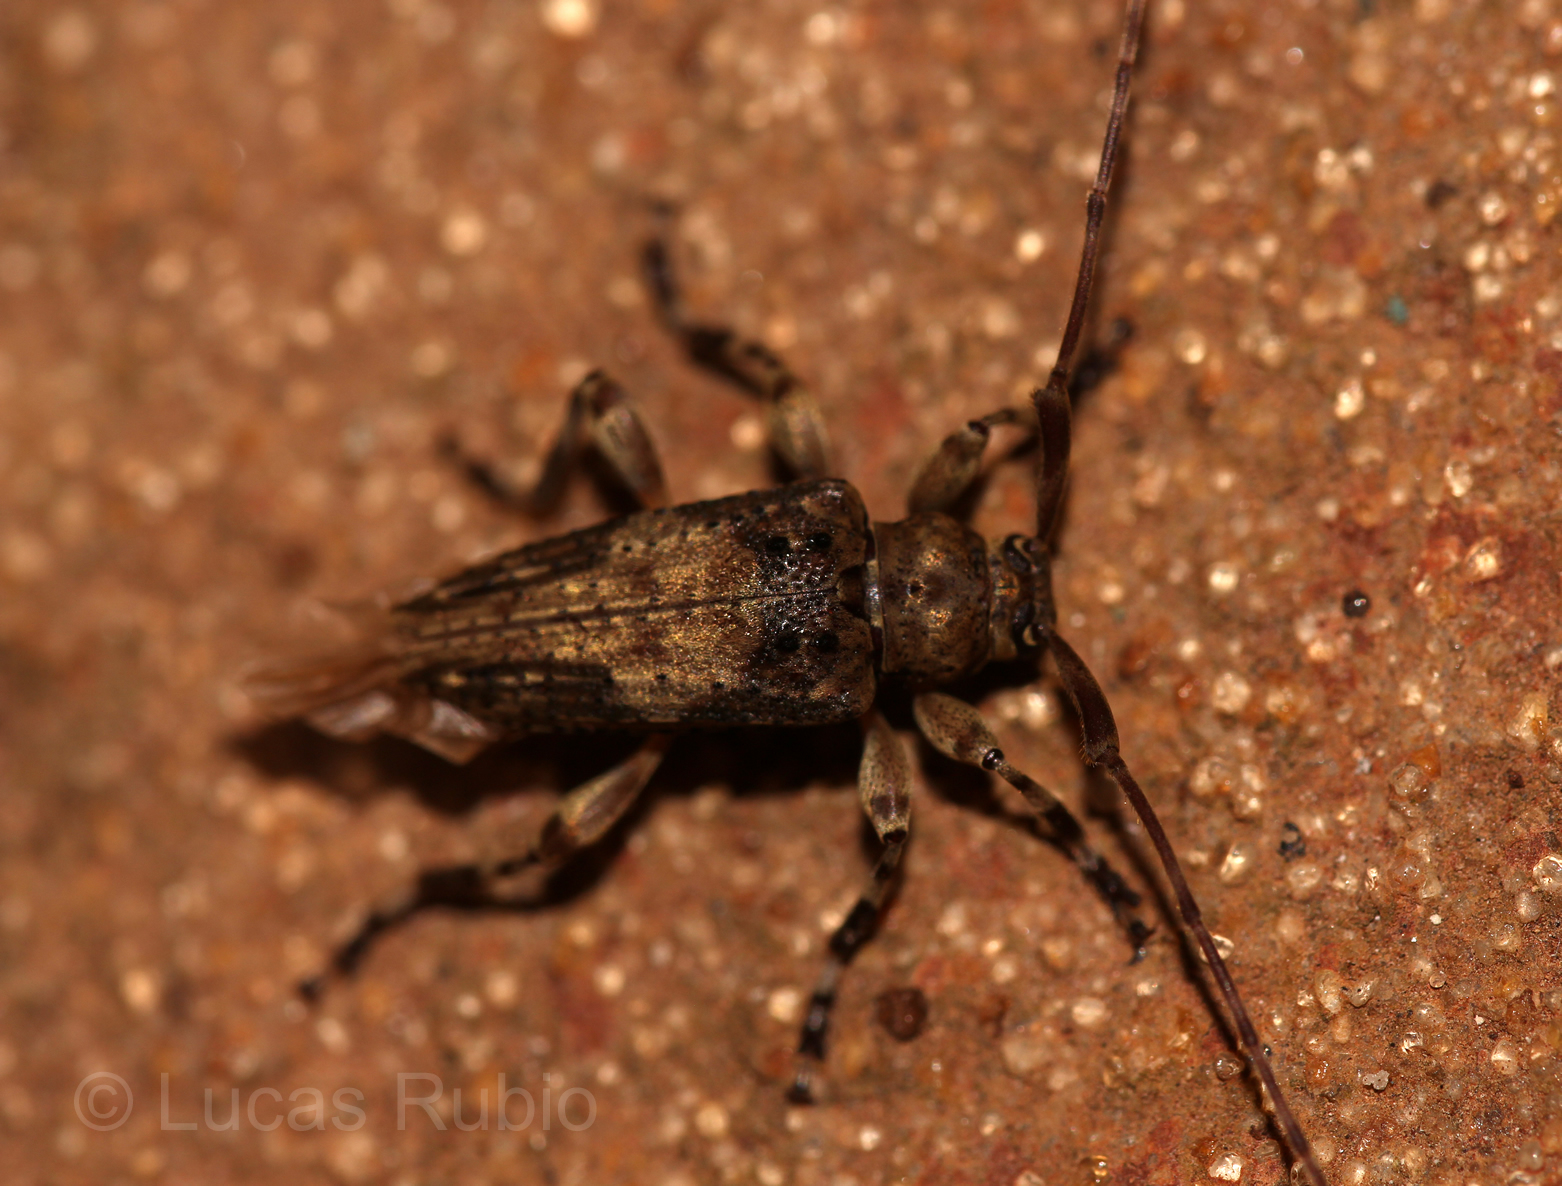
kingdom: Animalia
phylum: Arthropoda
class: Insecta
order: Coleoptera
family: Cerambycidae
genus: Nealcidion
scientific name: Nealcidion bicristatum
